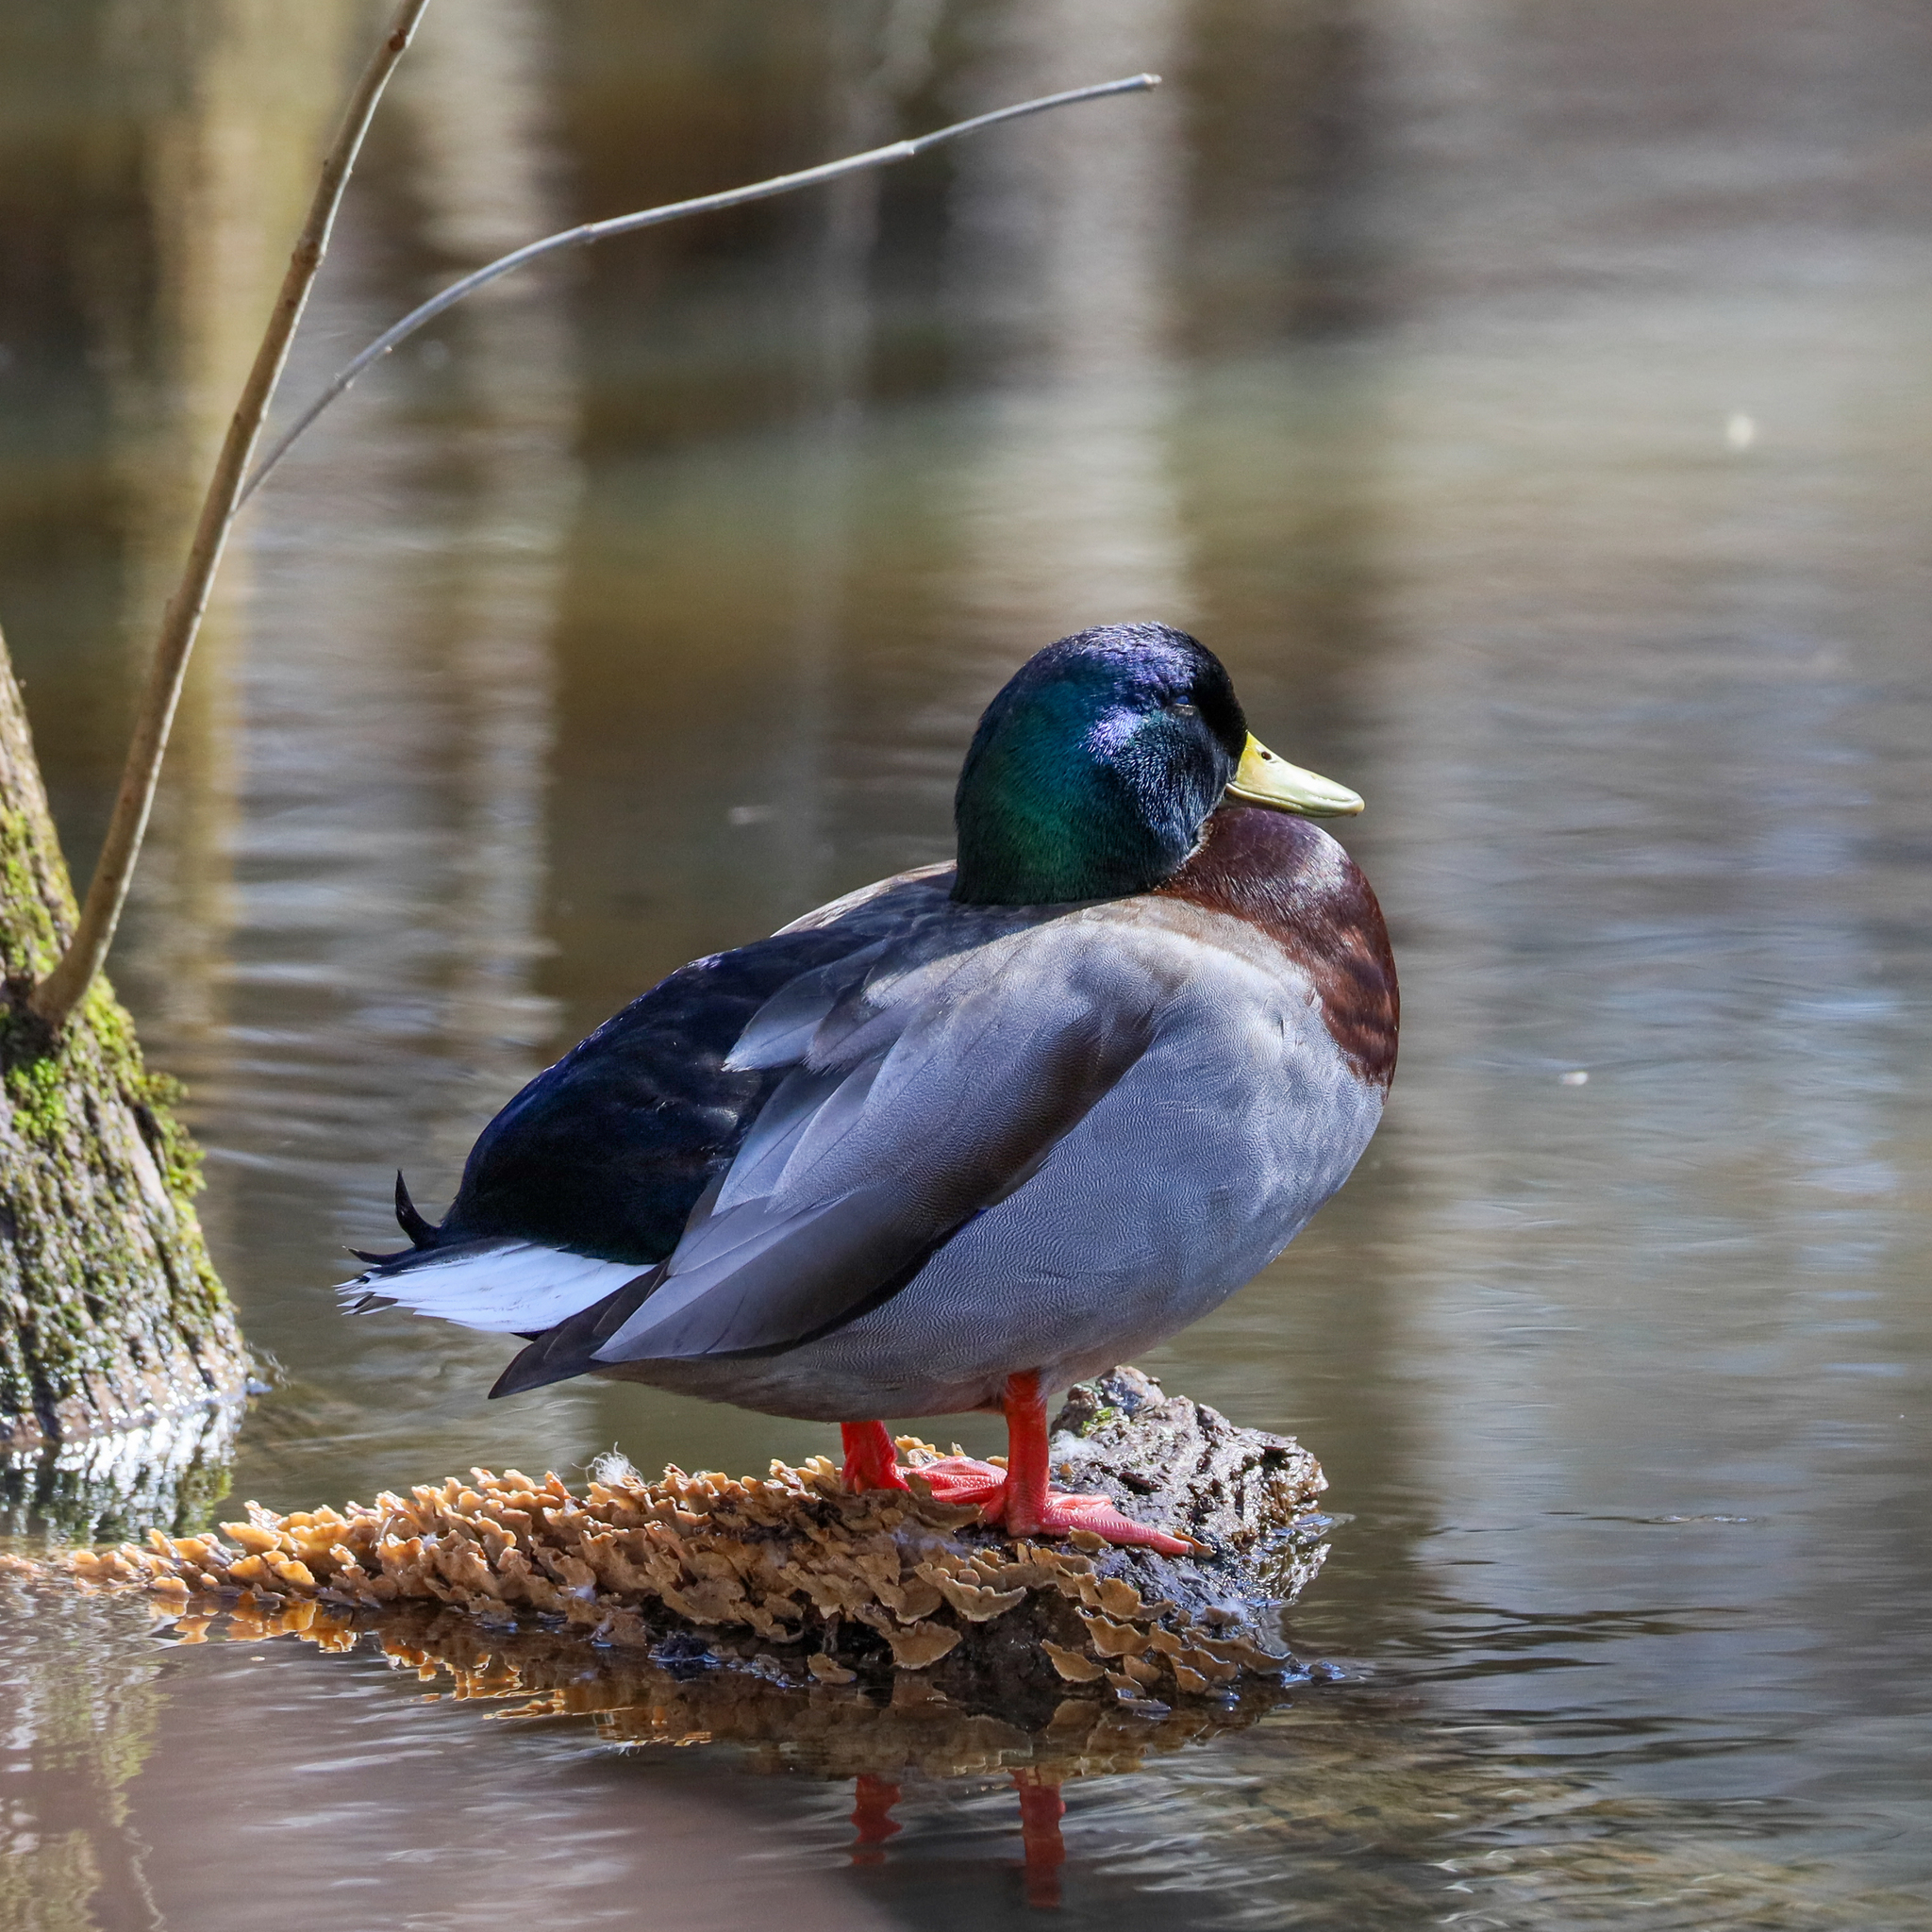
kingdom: Animalia
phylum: Chordata
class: Aves
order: Anseriformes
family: Anatidae
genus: Anas
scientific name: Anas platyrhynchos
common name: Mallard
